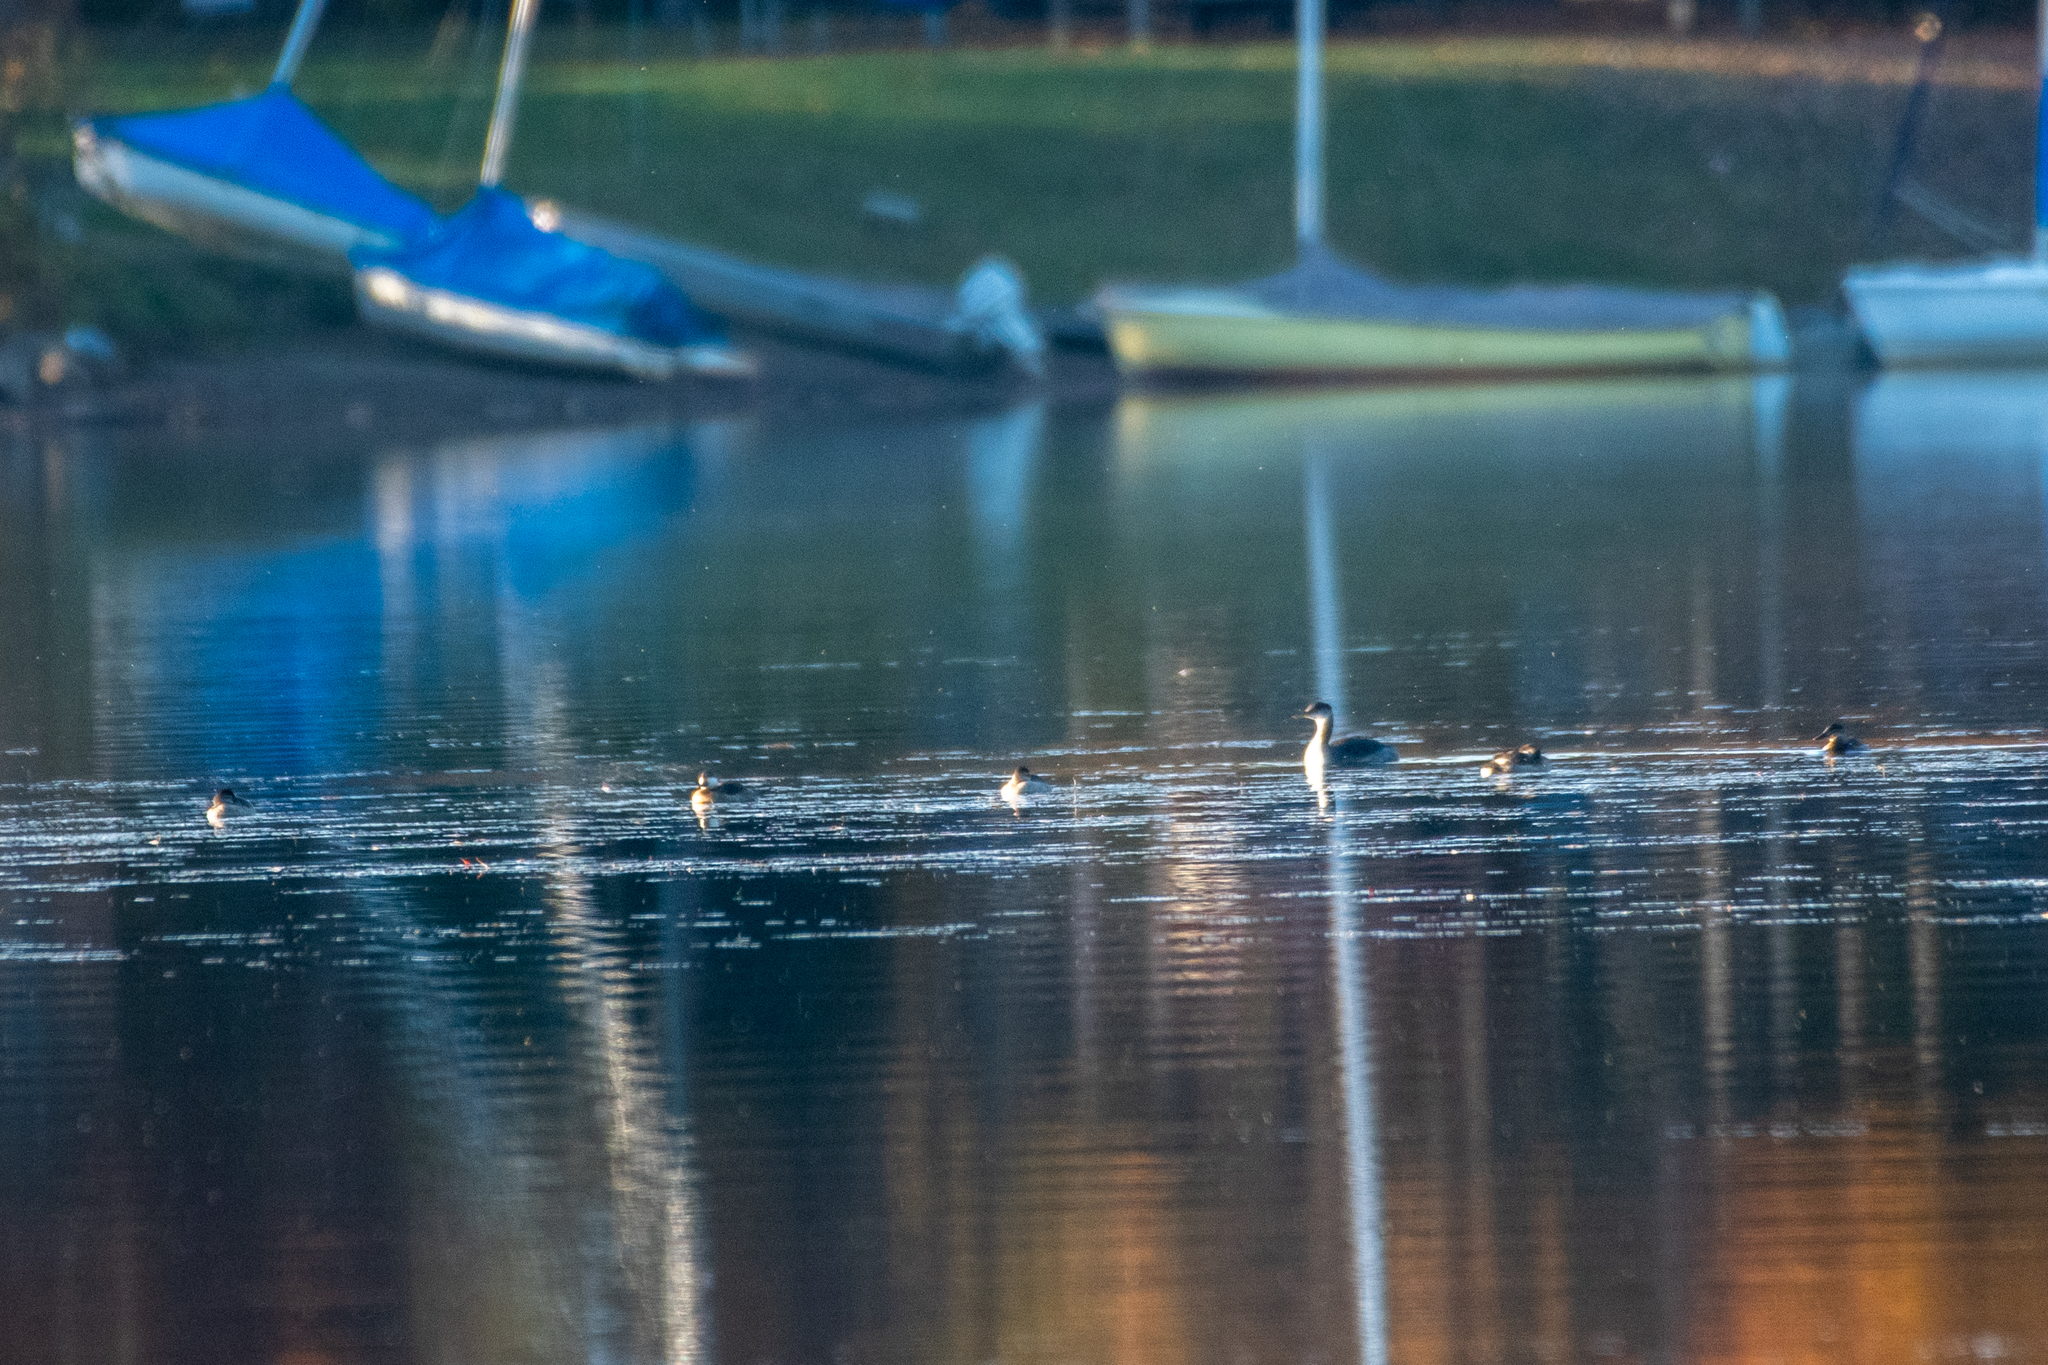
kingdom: Animalia
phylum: Chordata
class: Aves
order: Anseriformes
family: Anatidae
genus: Oxyura
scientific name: Oxyura jamaicensis
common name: Ruddy duck
